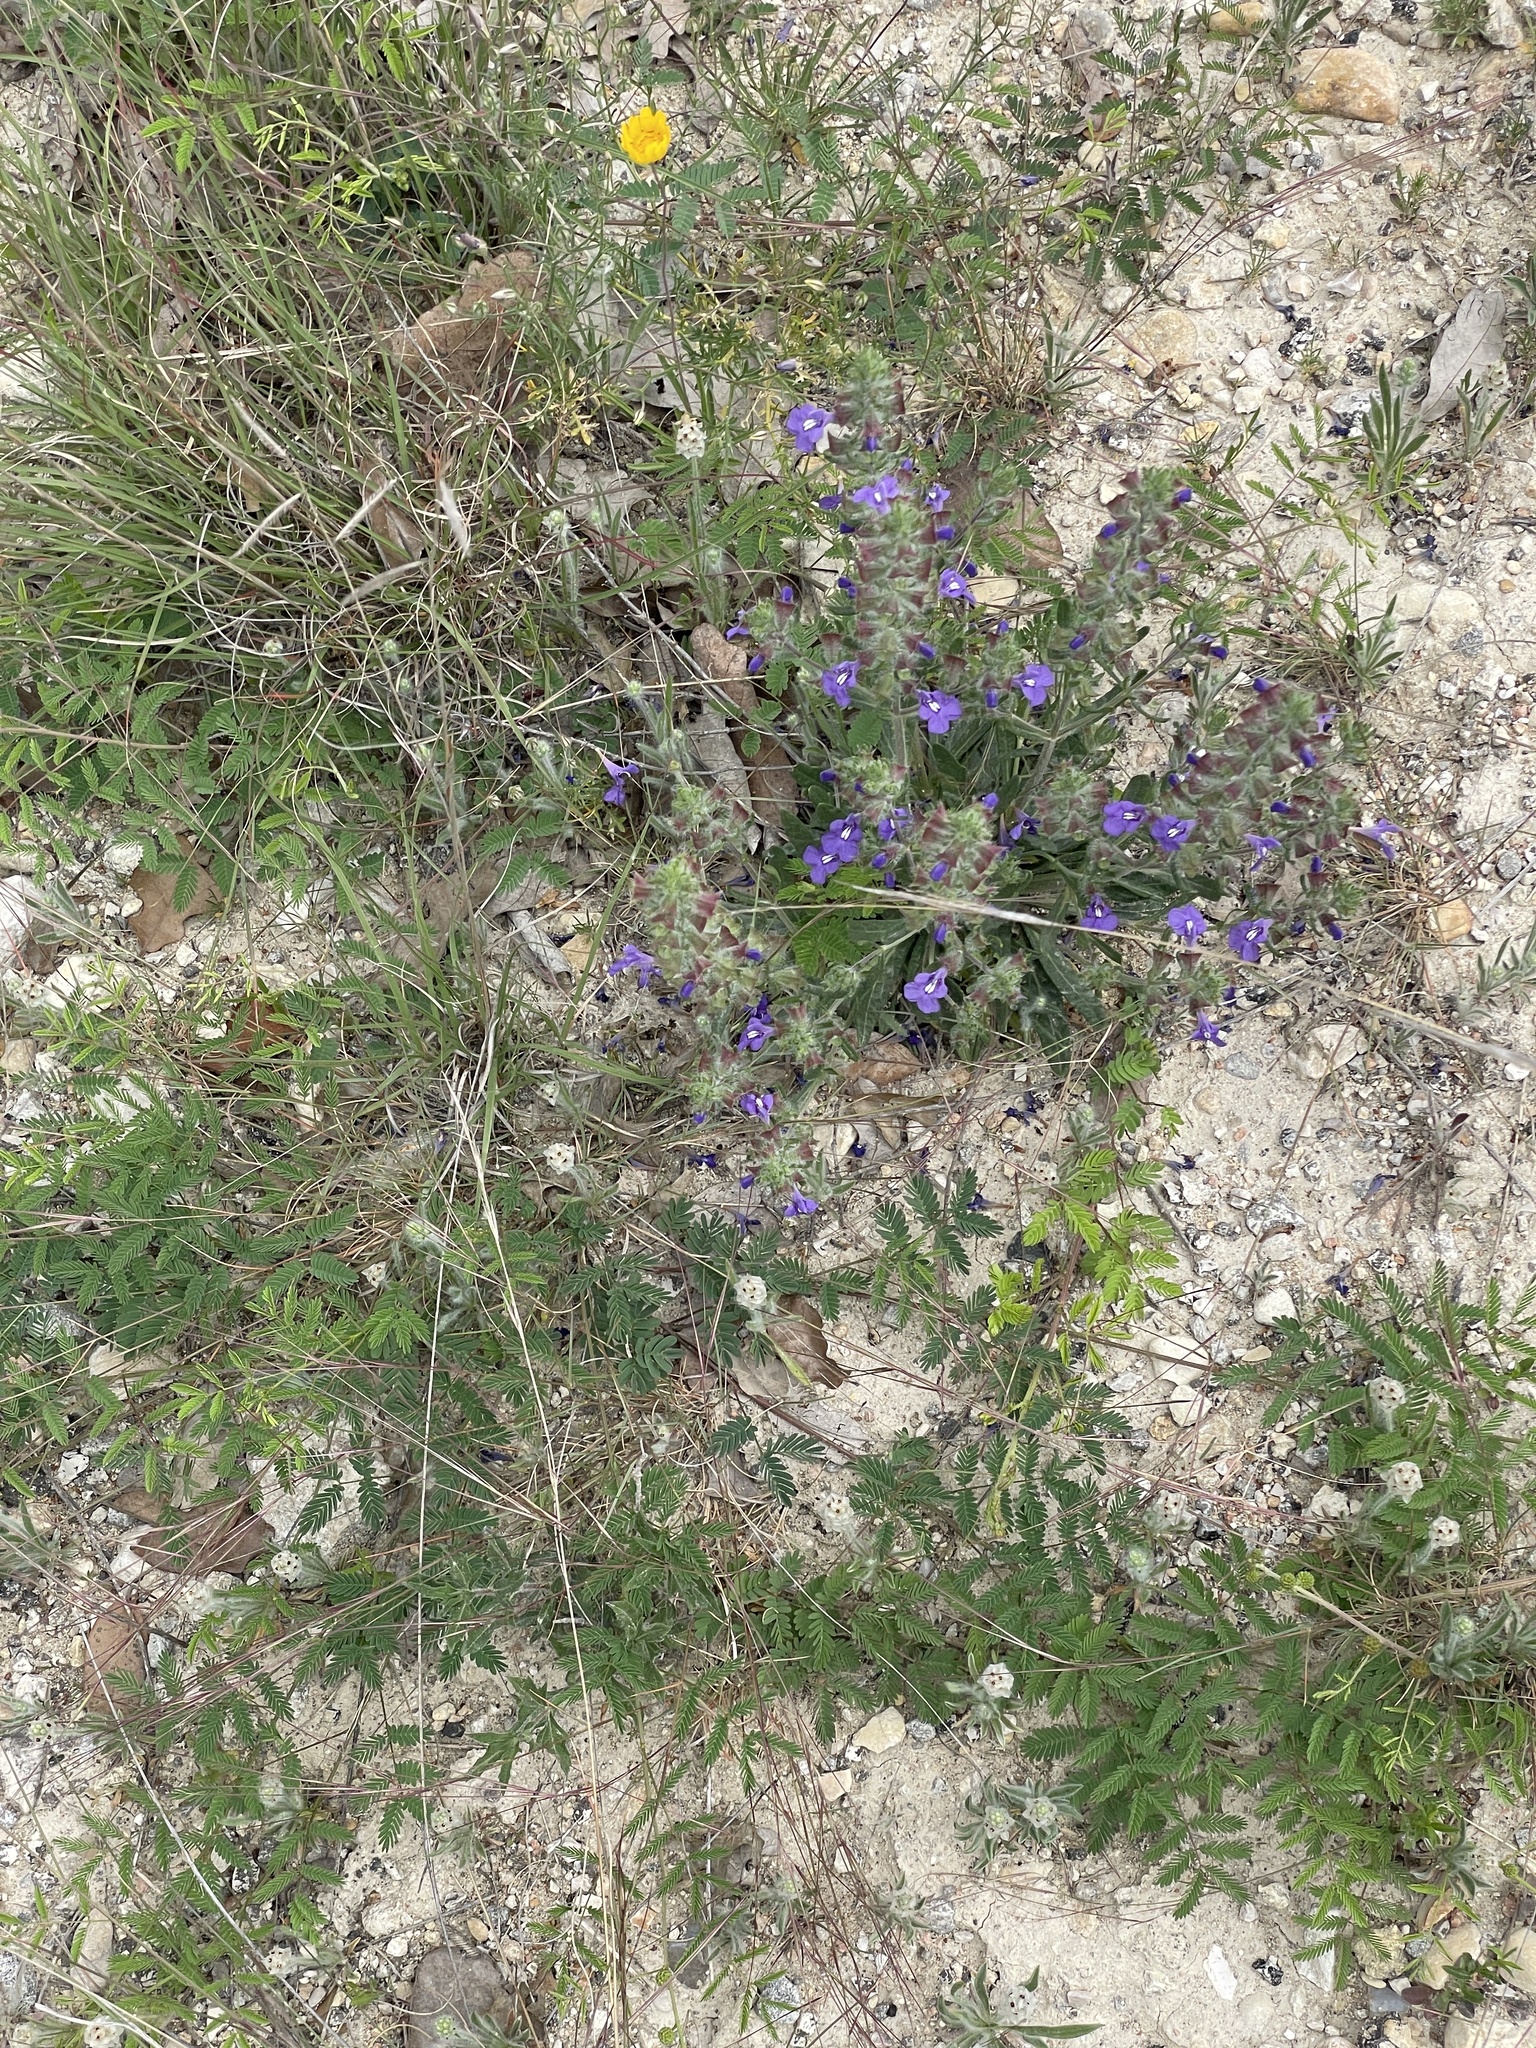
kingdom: Plantae
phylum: Tracheophyta
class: Magnoliopsida
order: Lamiales
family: Lamiaceae
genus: Salvia
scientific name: Salvia texana
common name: Texas sage
